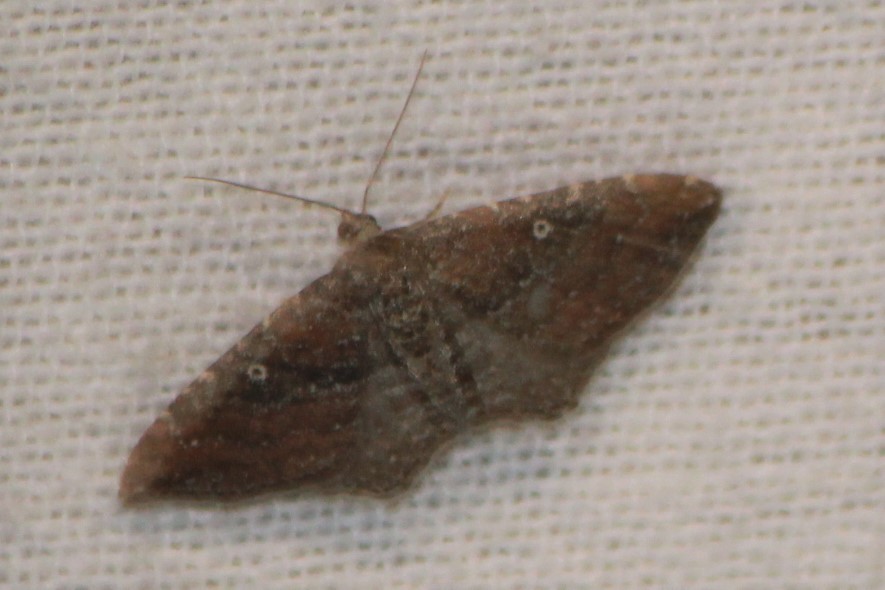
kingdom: Animalia
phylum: Arthropoda
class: Insecta
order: Lepidoptera
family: Geometridae
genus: Orthonama
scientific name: Orthonama obstipata
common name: The gem
